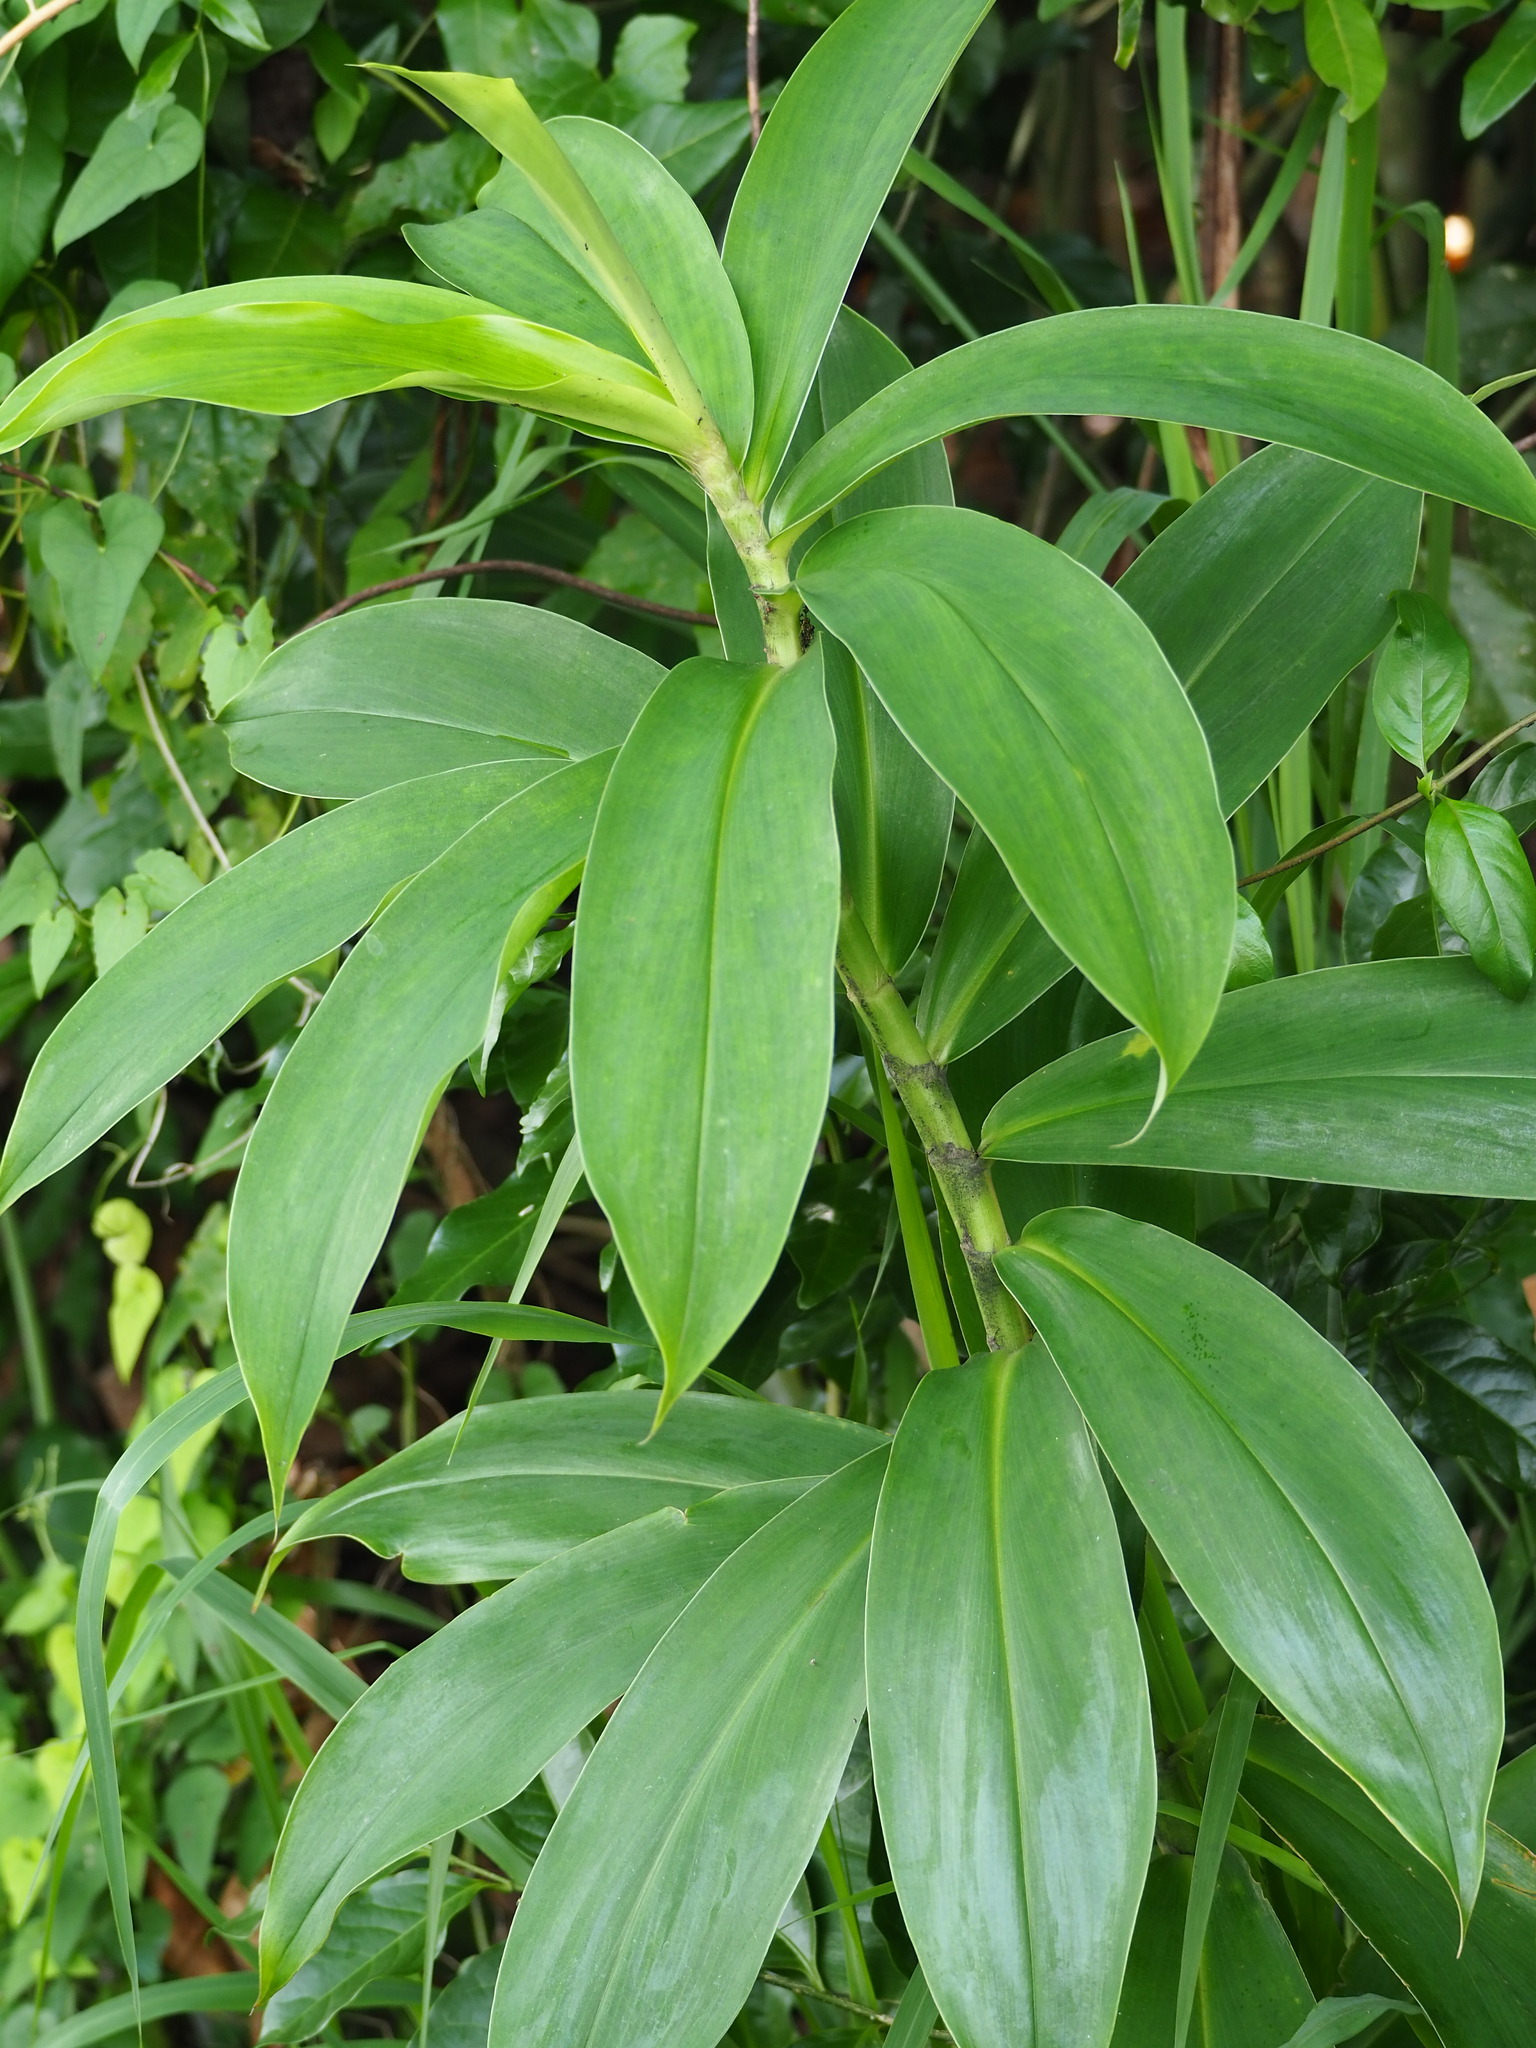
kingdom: Plantae
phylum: Tracheophyta
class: Liliopsida
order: Zingiberales
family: Costaceae
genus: Hellenia
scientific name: Hellenia speciosa
